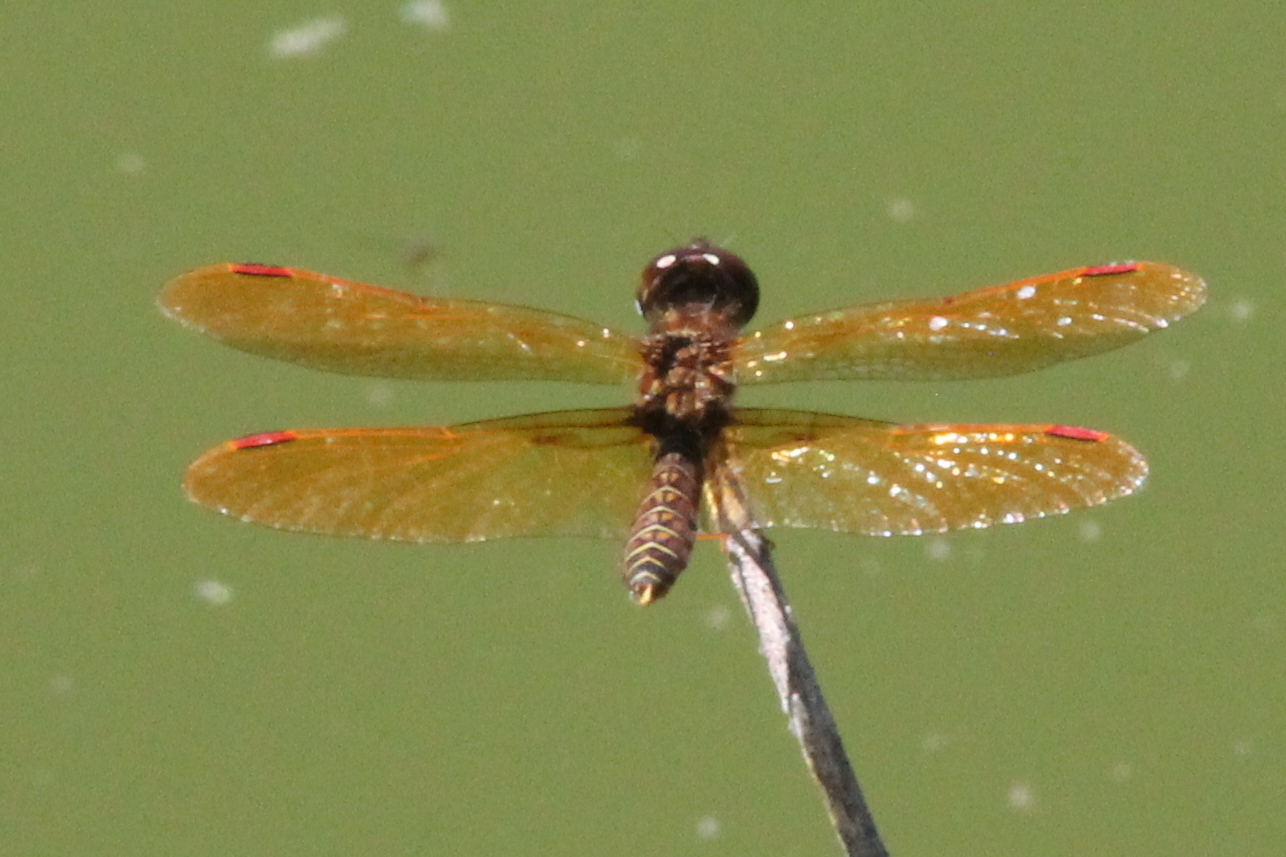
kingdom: Animalia
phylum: Arthropoda
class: Insecta
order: Odonata
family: Libellulidae
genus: Perithemis
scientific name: Perithemis tenera
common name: Eastern amberwing
